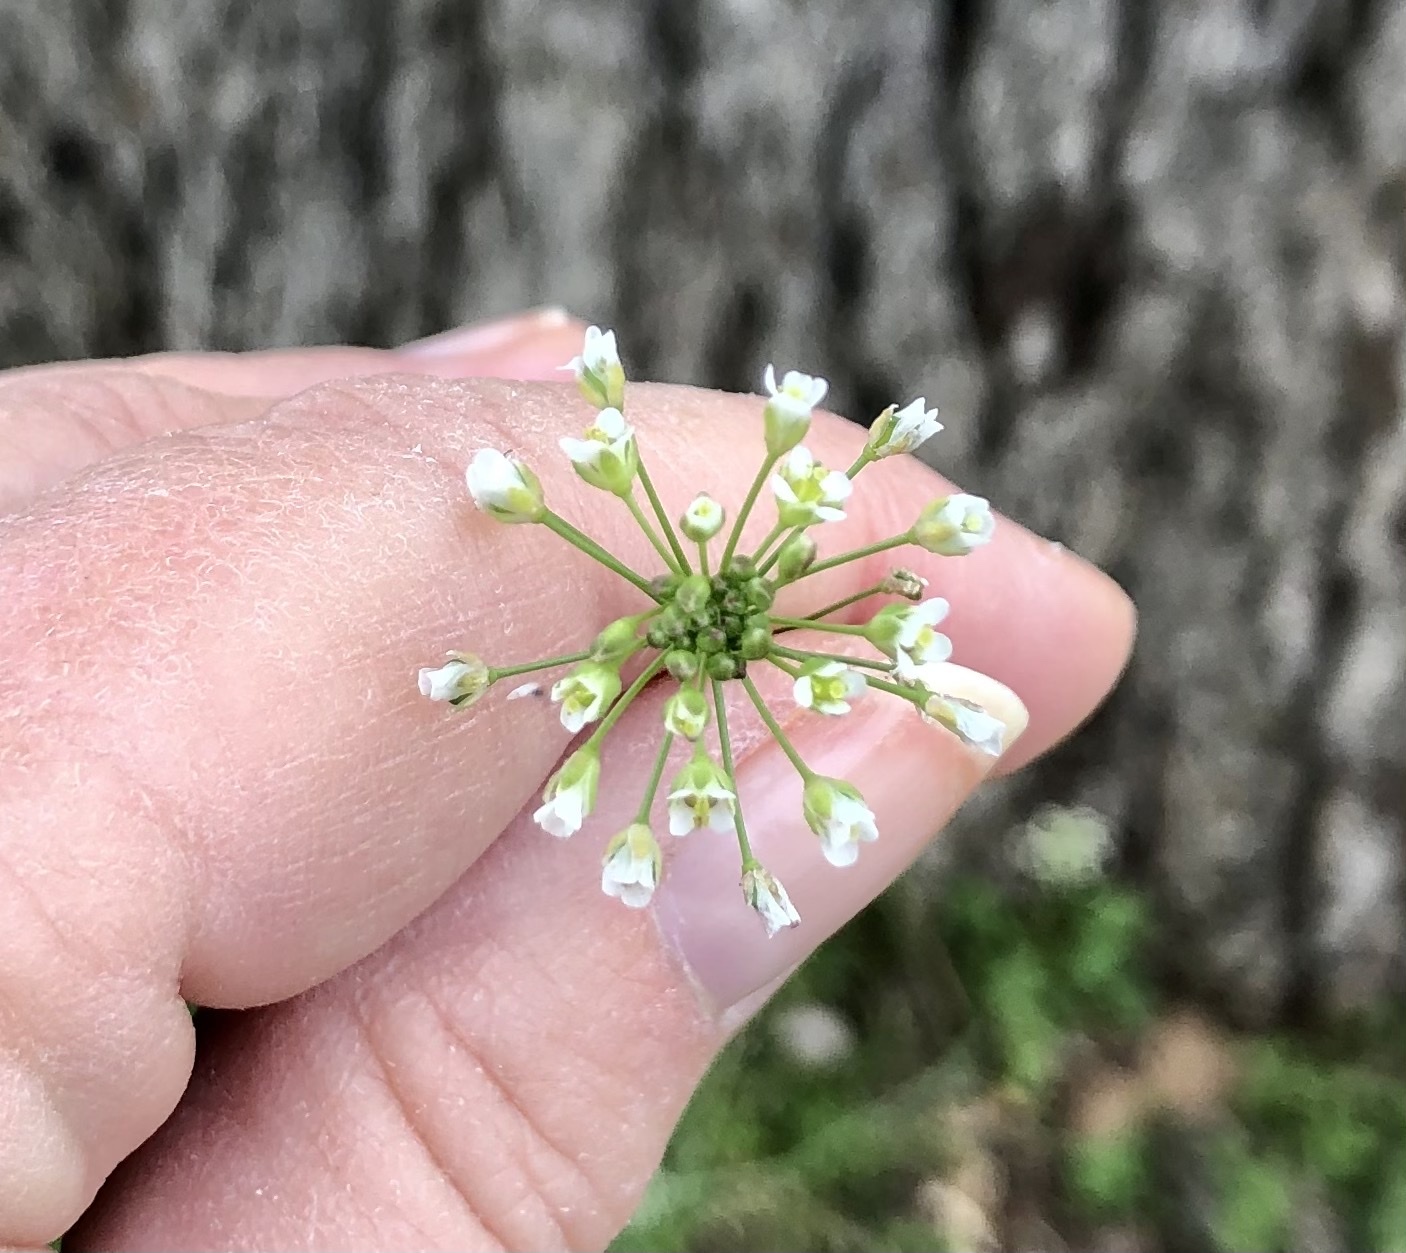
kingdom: Plantae
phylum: Tracheophyta
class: Magnoliopsida
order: Brassicales
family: Brassicaceae
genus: Capsella
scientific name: Capsella bursa-pastoris
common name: Shepherd's purse
